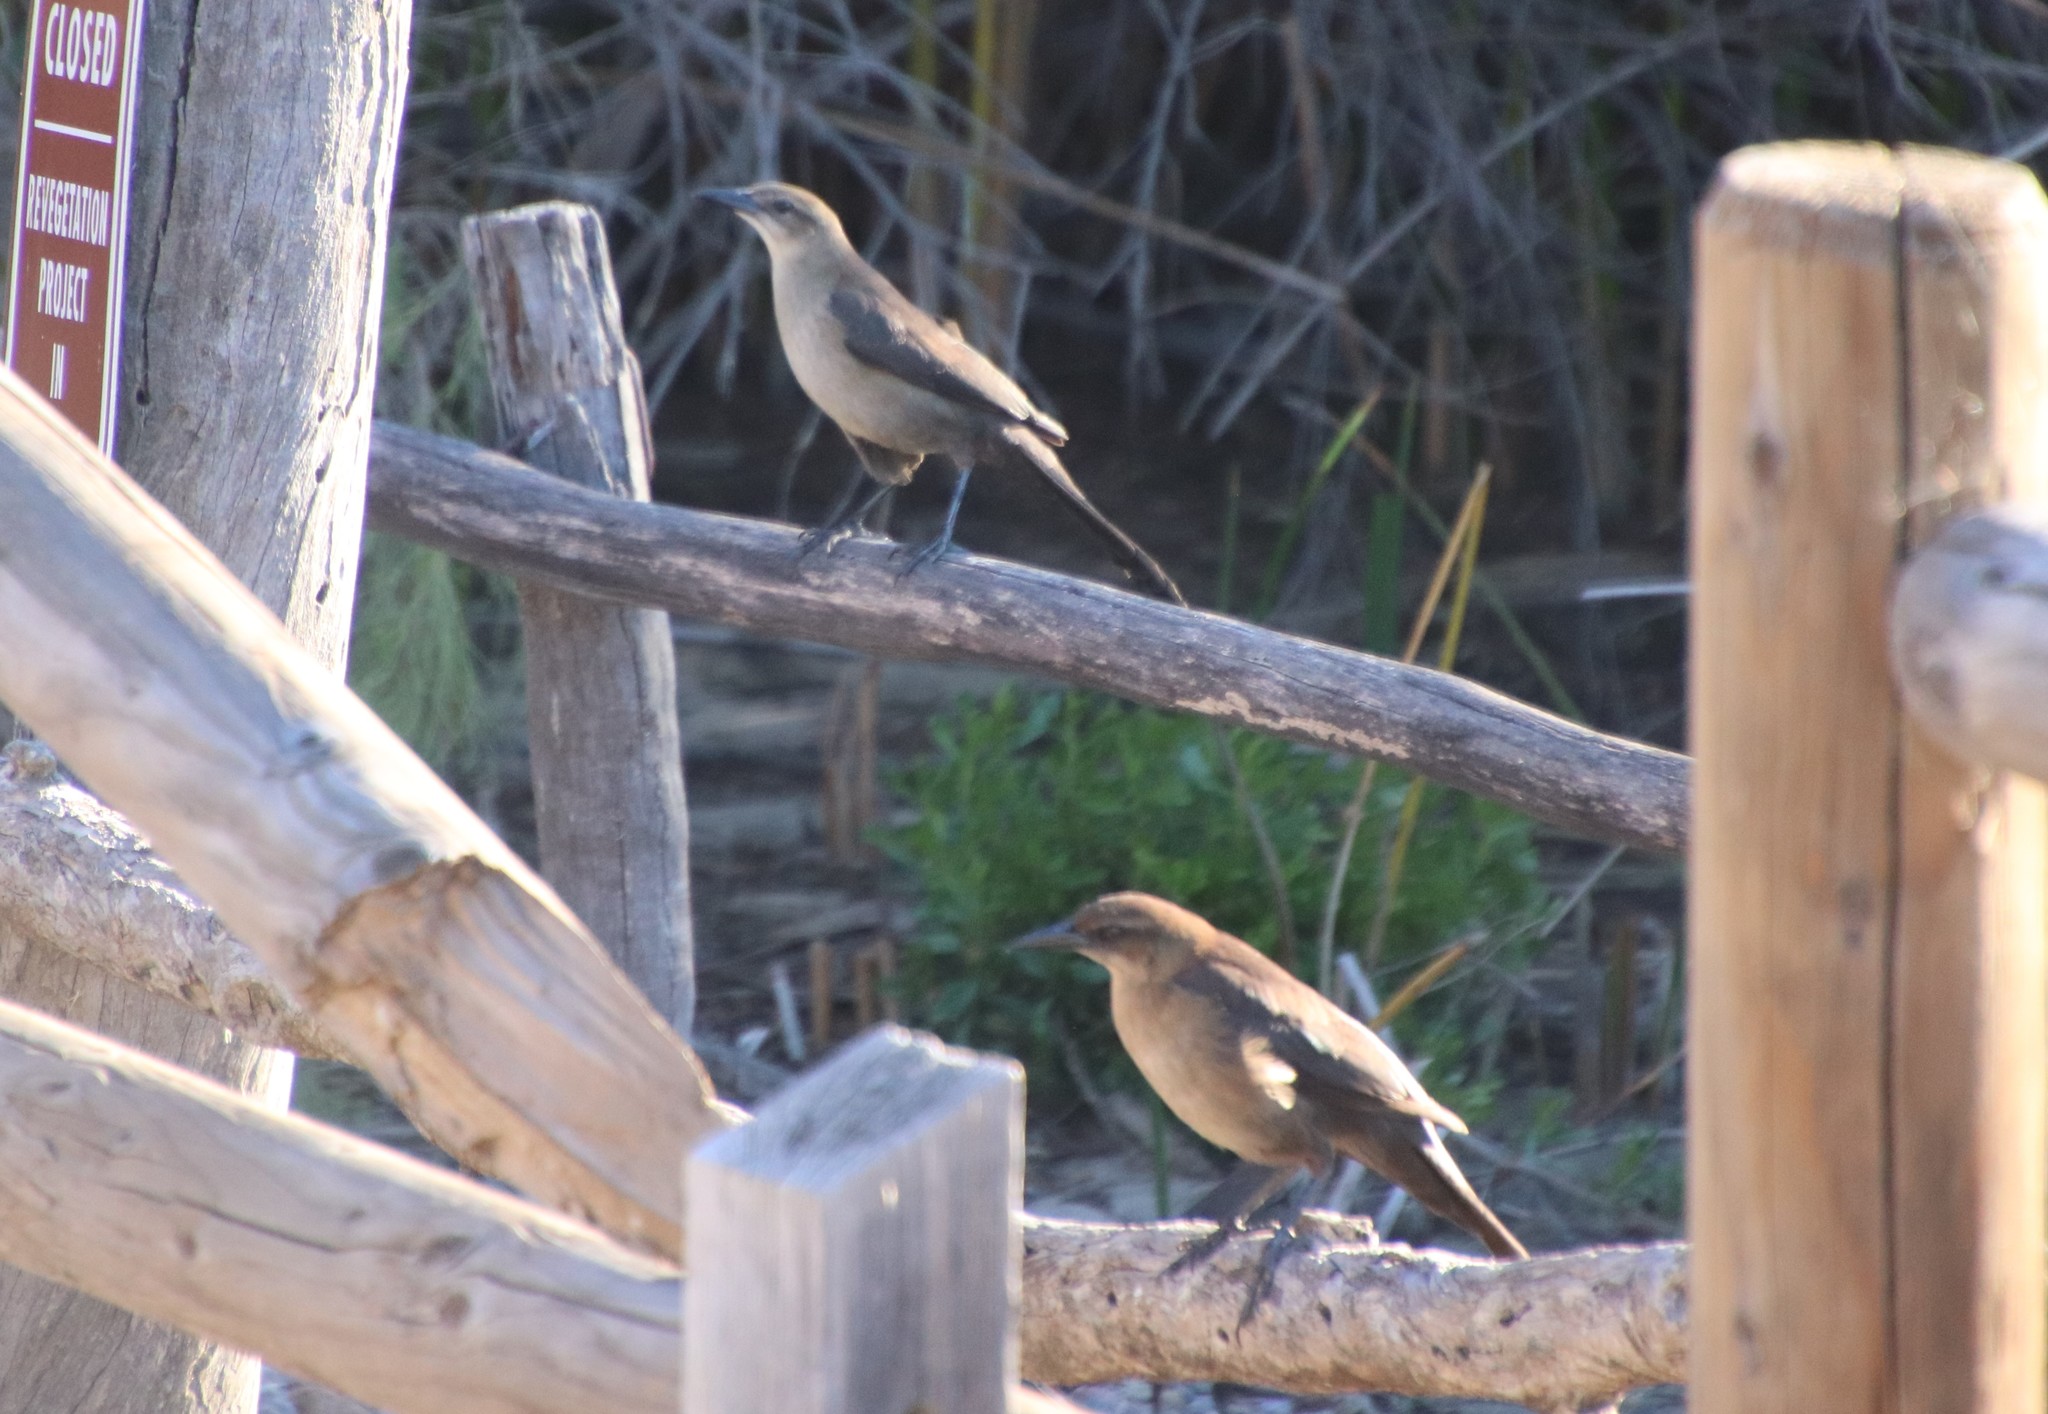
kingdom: Animalia
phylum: Chordata
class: Aves
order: Passeriformes
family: Icteridae
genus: Quiscalus
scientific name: Quiscalus mexicanus
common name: Great-tailed grackle
